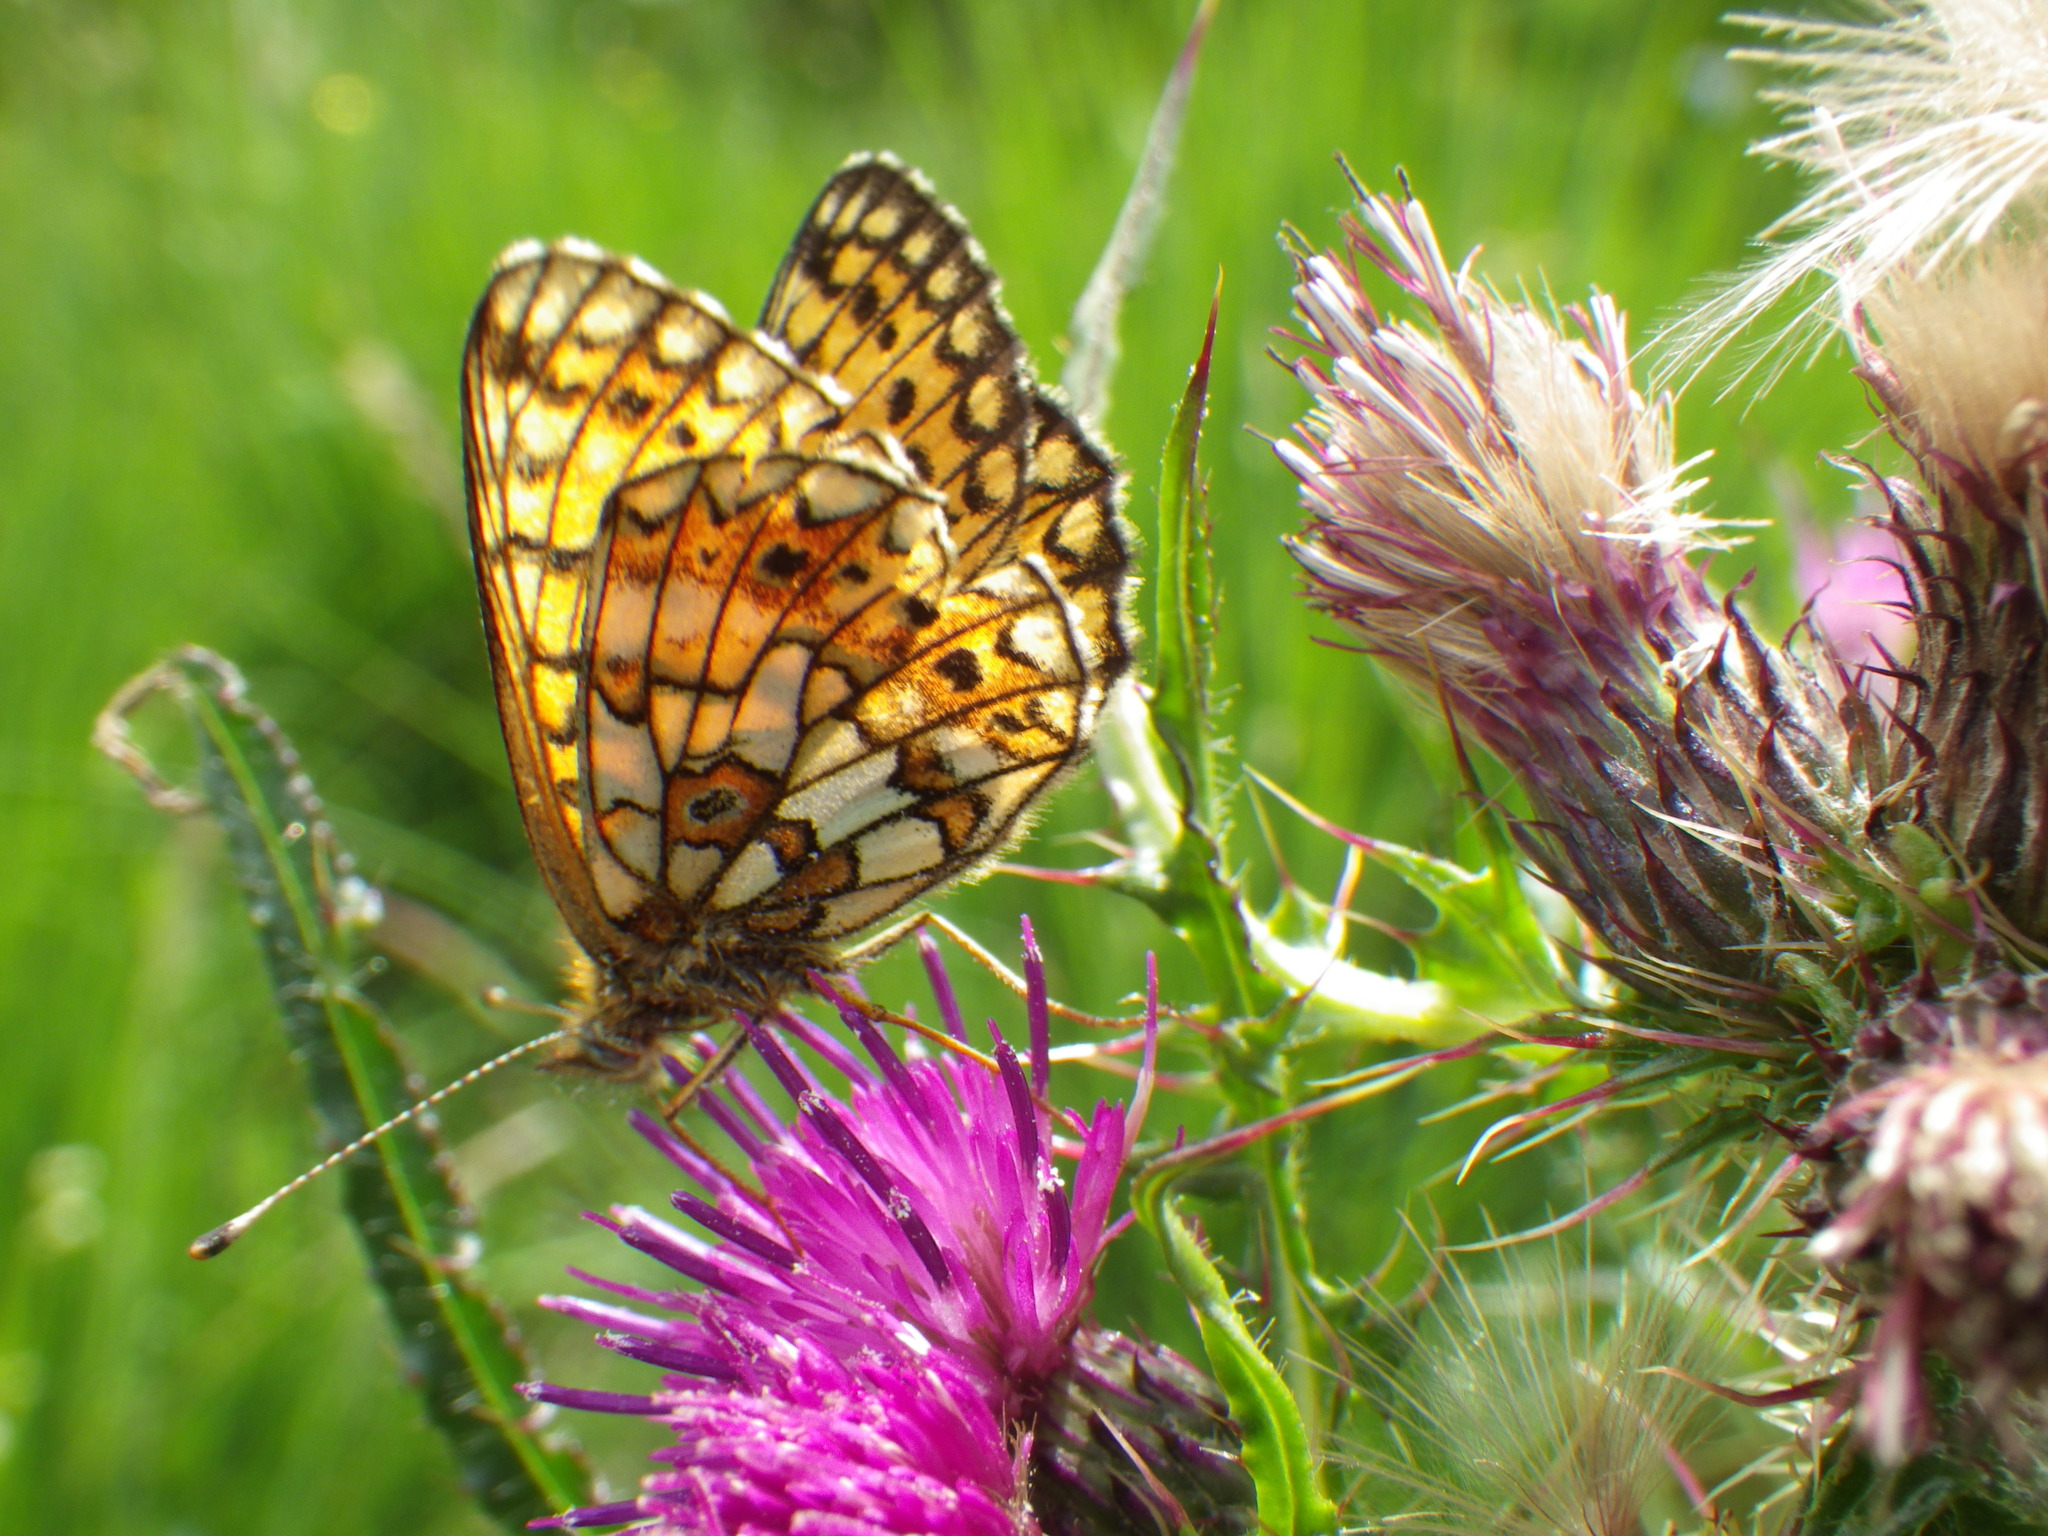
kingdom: Animalia
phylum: Arthropoda
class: Insecta
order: Lepidoptera
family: Nymphalidae
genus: Boloria
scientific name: Boloria selene
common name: Small pearl-bordered fritillary
